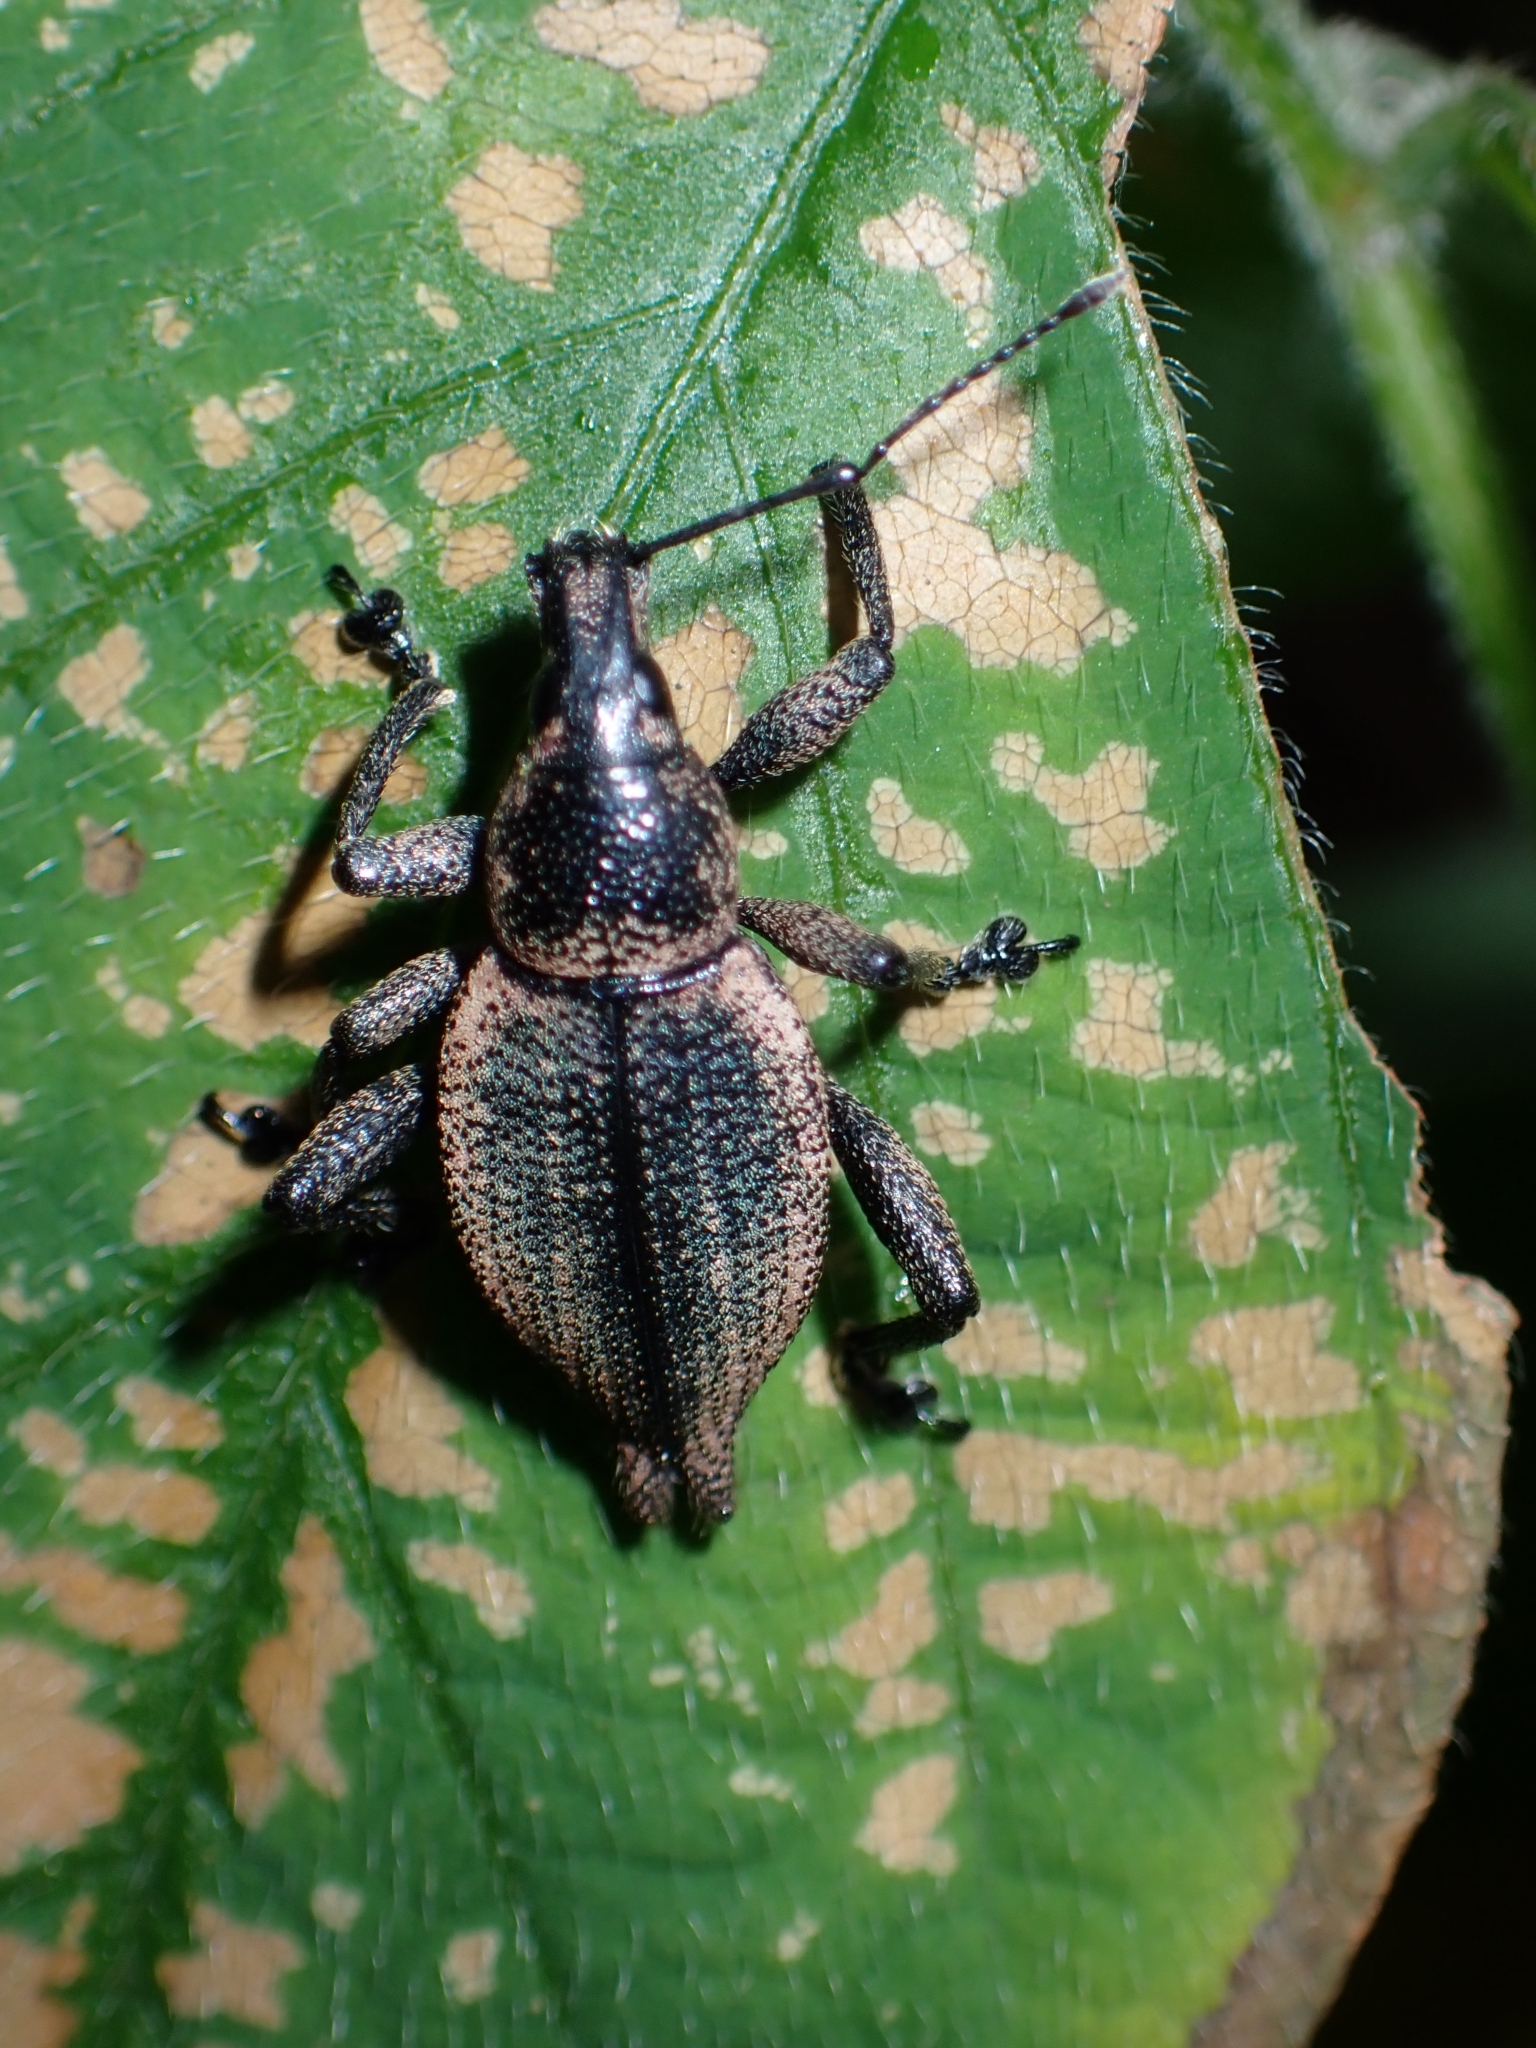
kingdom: Animalia
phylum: Arthropoda
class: Insecta
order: Coleoptera
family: Curculionidae
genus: Elytrurus
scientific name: Elytrurus serrulatus
